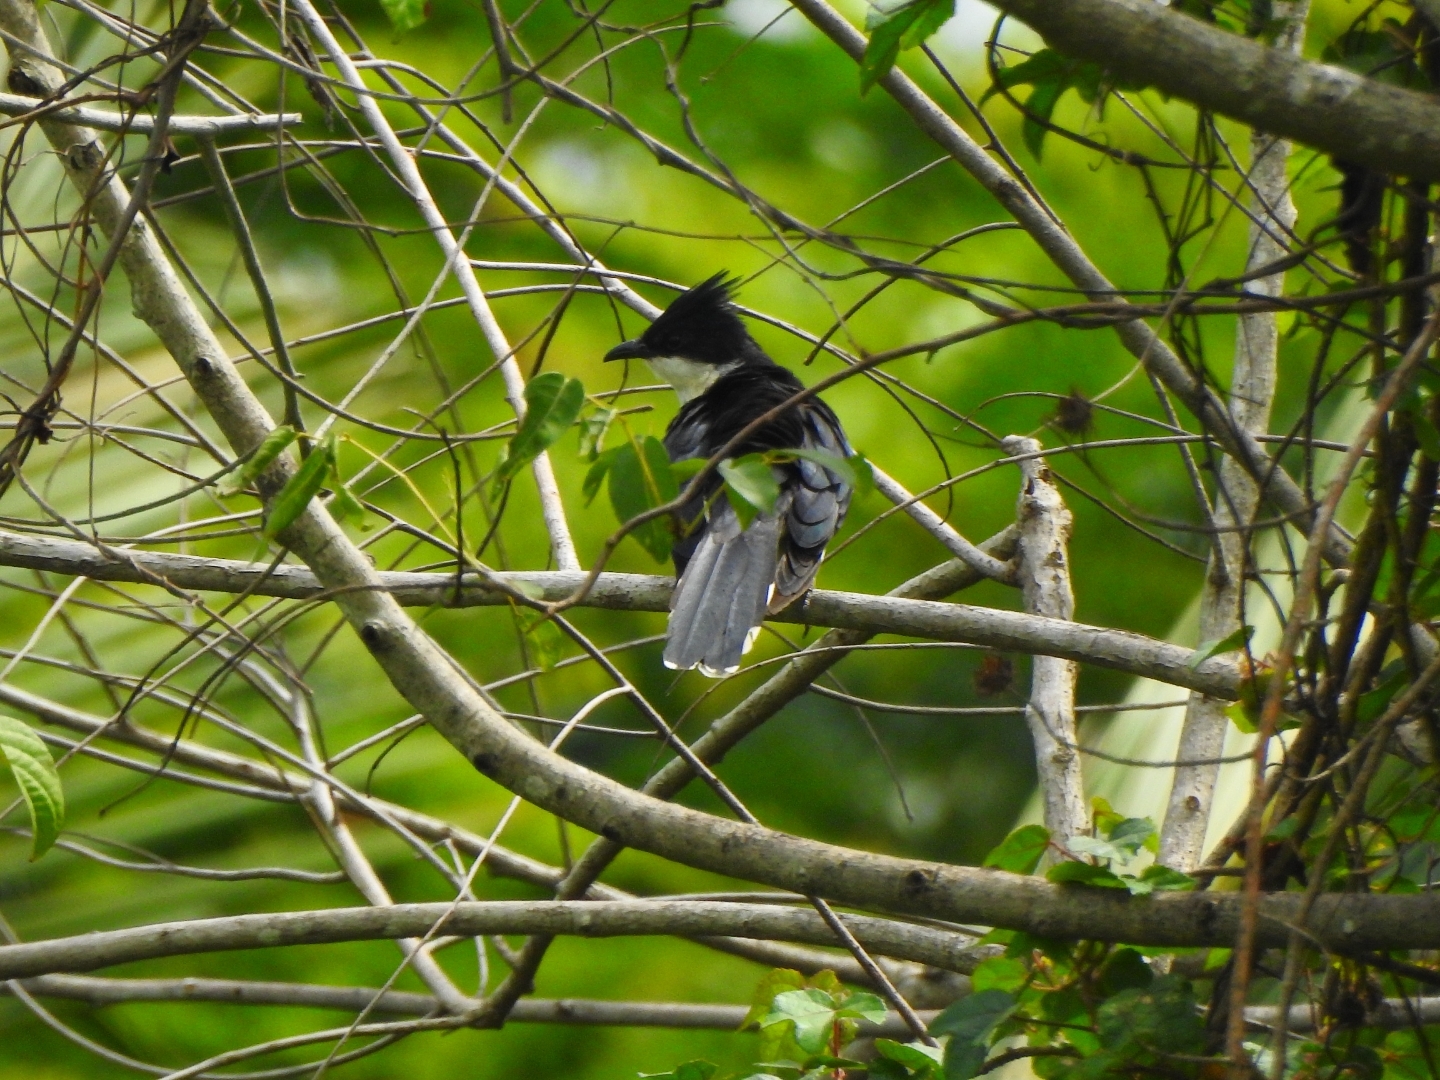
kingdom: Animalia
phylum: Chordata
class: Aves
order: Cuculiformes
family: Cuculidae
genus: Clamator
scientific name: Clamator jacobinus
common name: Jacobin cuckoo
